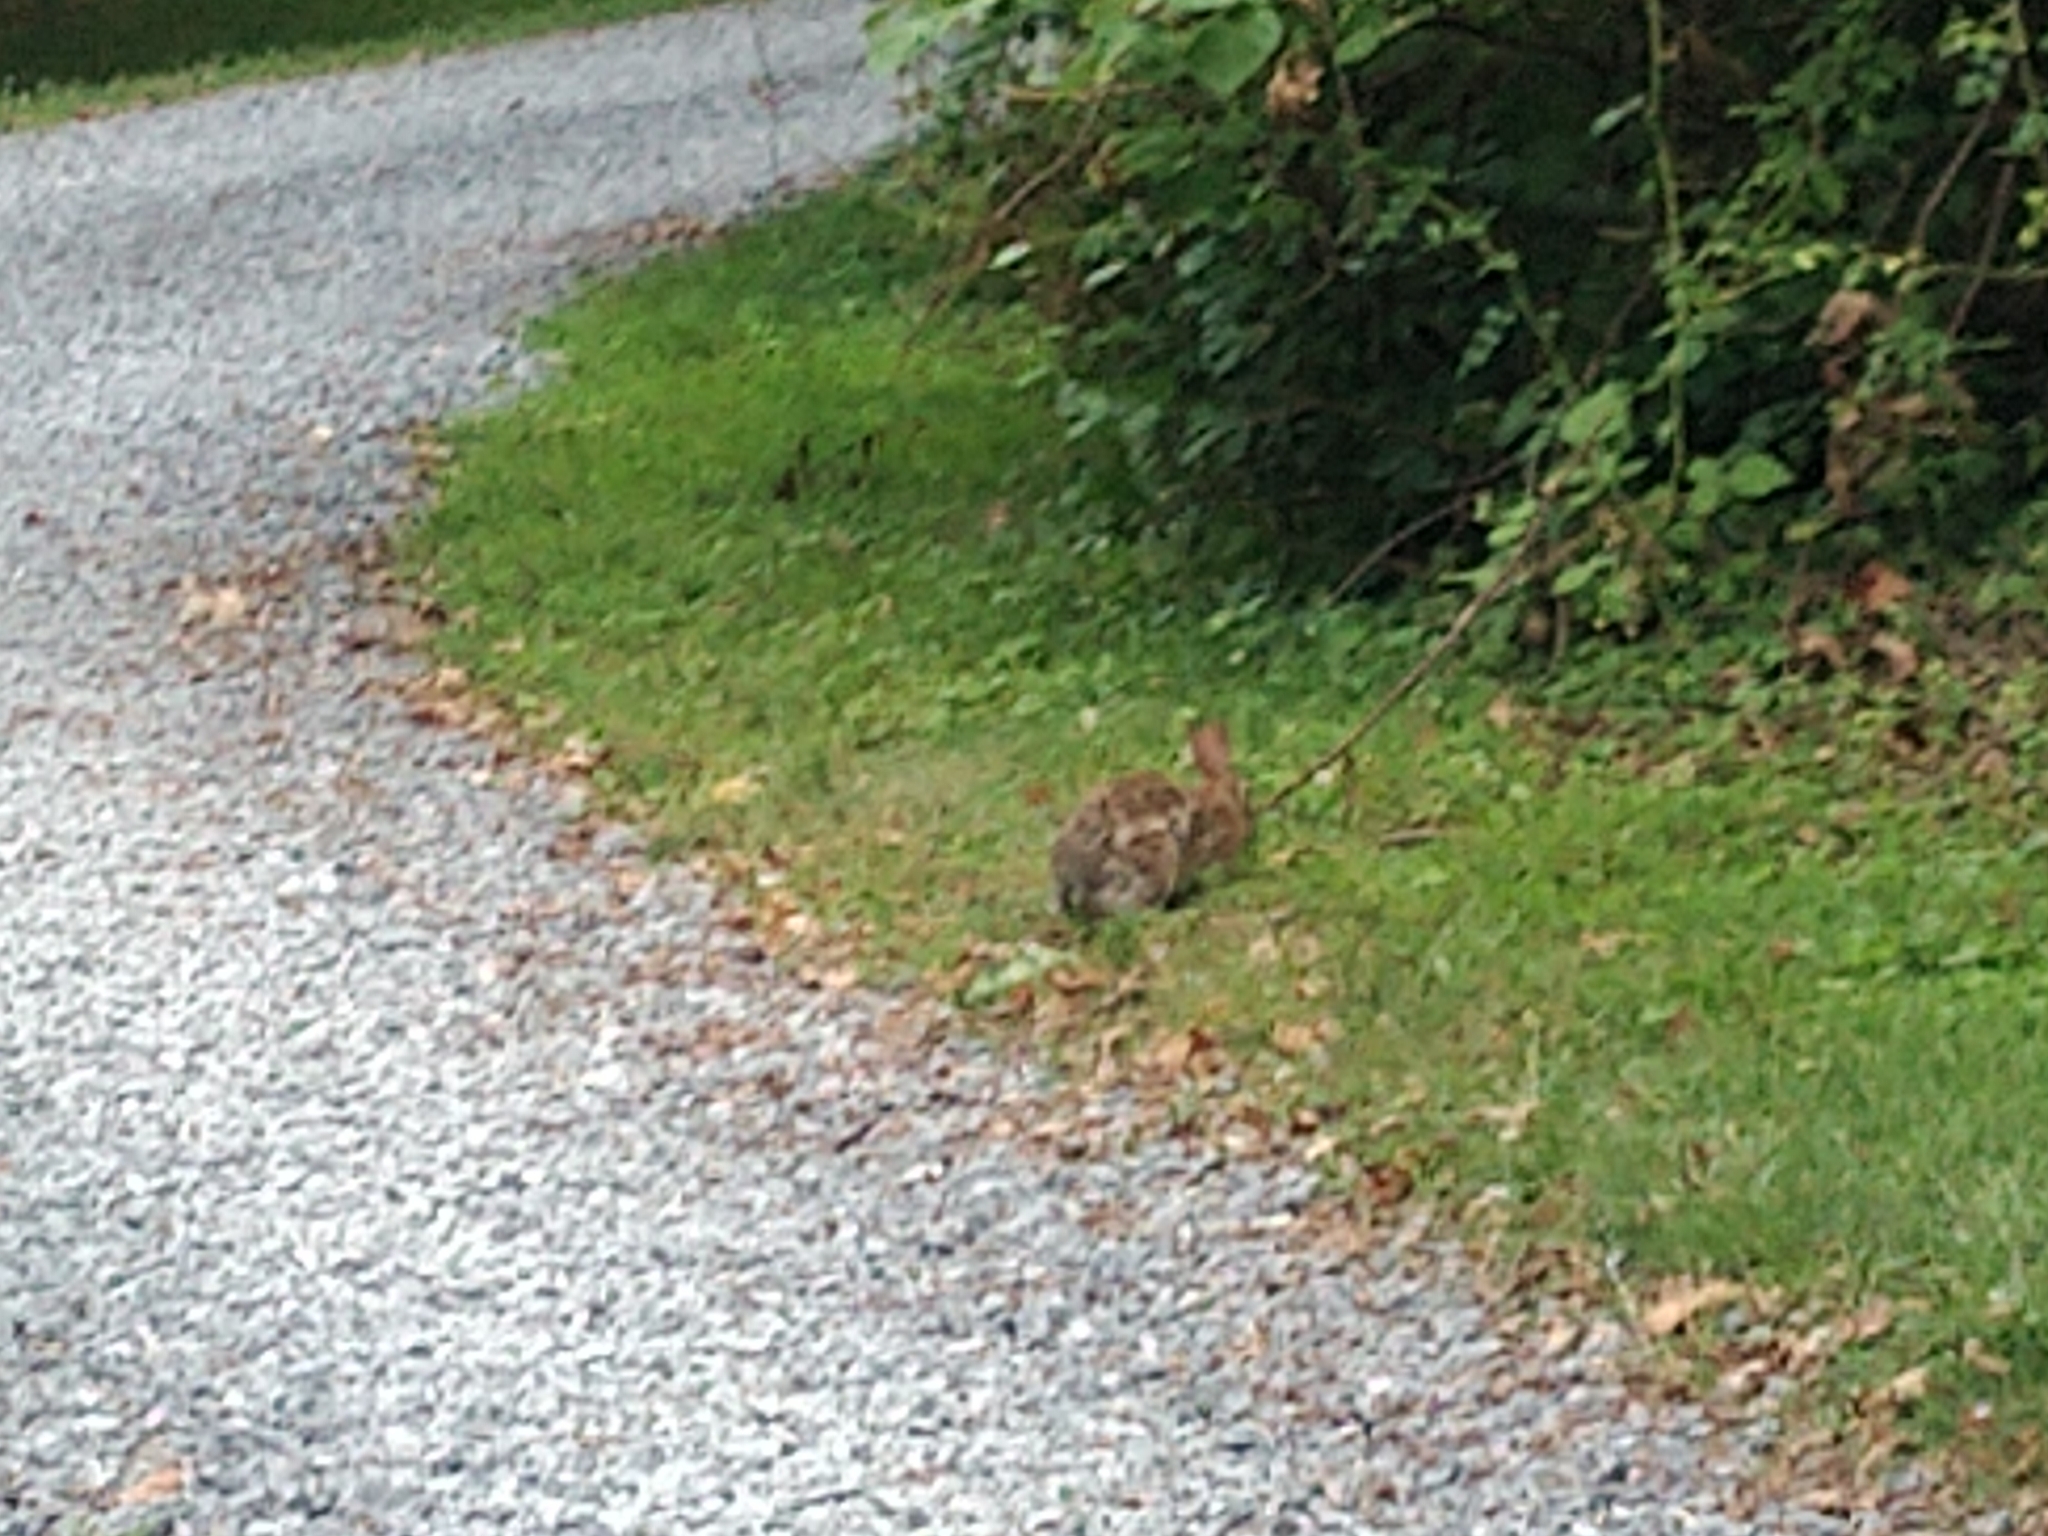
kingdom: Animalia
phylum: Chordata
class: Mammalia
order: Lagomorpha
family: Leporidae
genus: Sylvilagus
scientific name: Sylvilagus floridanus
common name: Eastern cottontail
